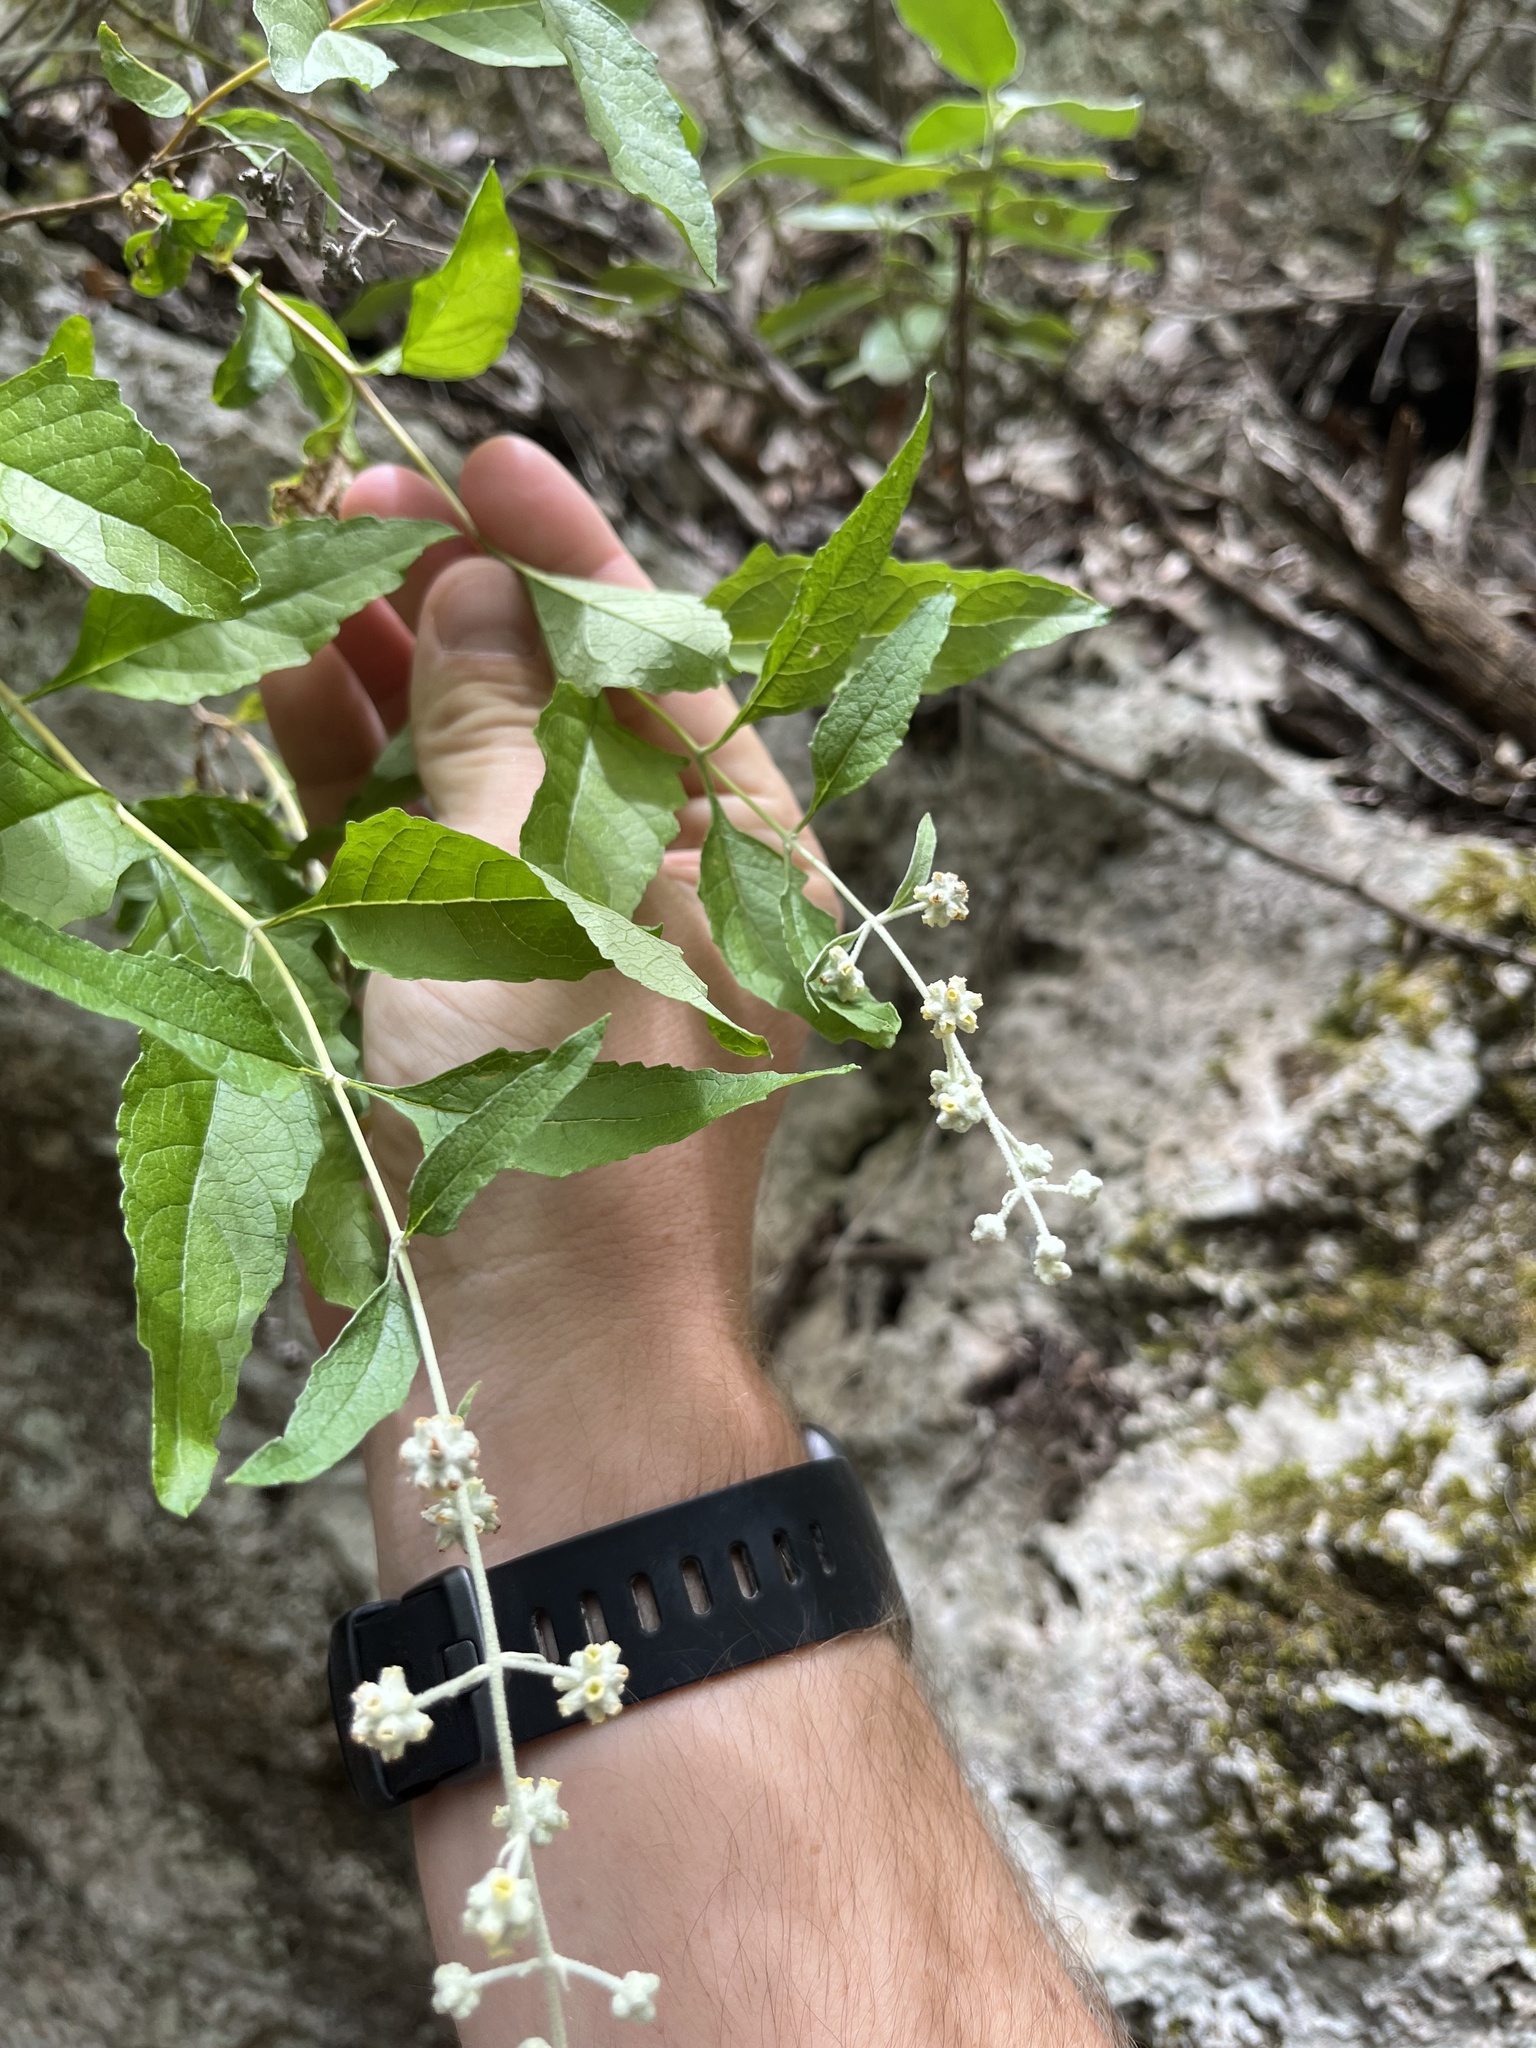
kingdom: Plantae
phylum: Tracheophyta
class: Magnoliopsida
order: Lamiales
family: Scrophulariaceae
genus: Buddleja
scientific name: Buddleja racemosa
